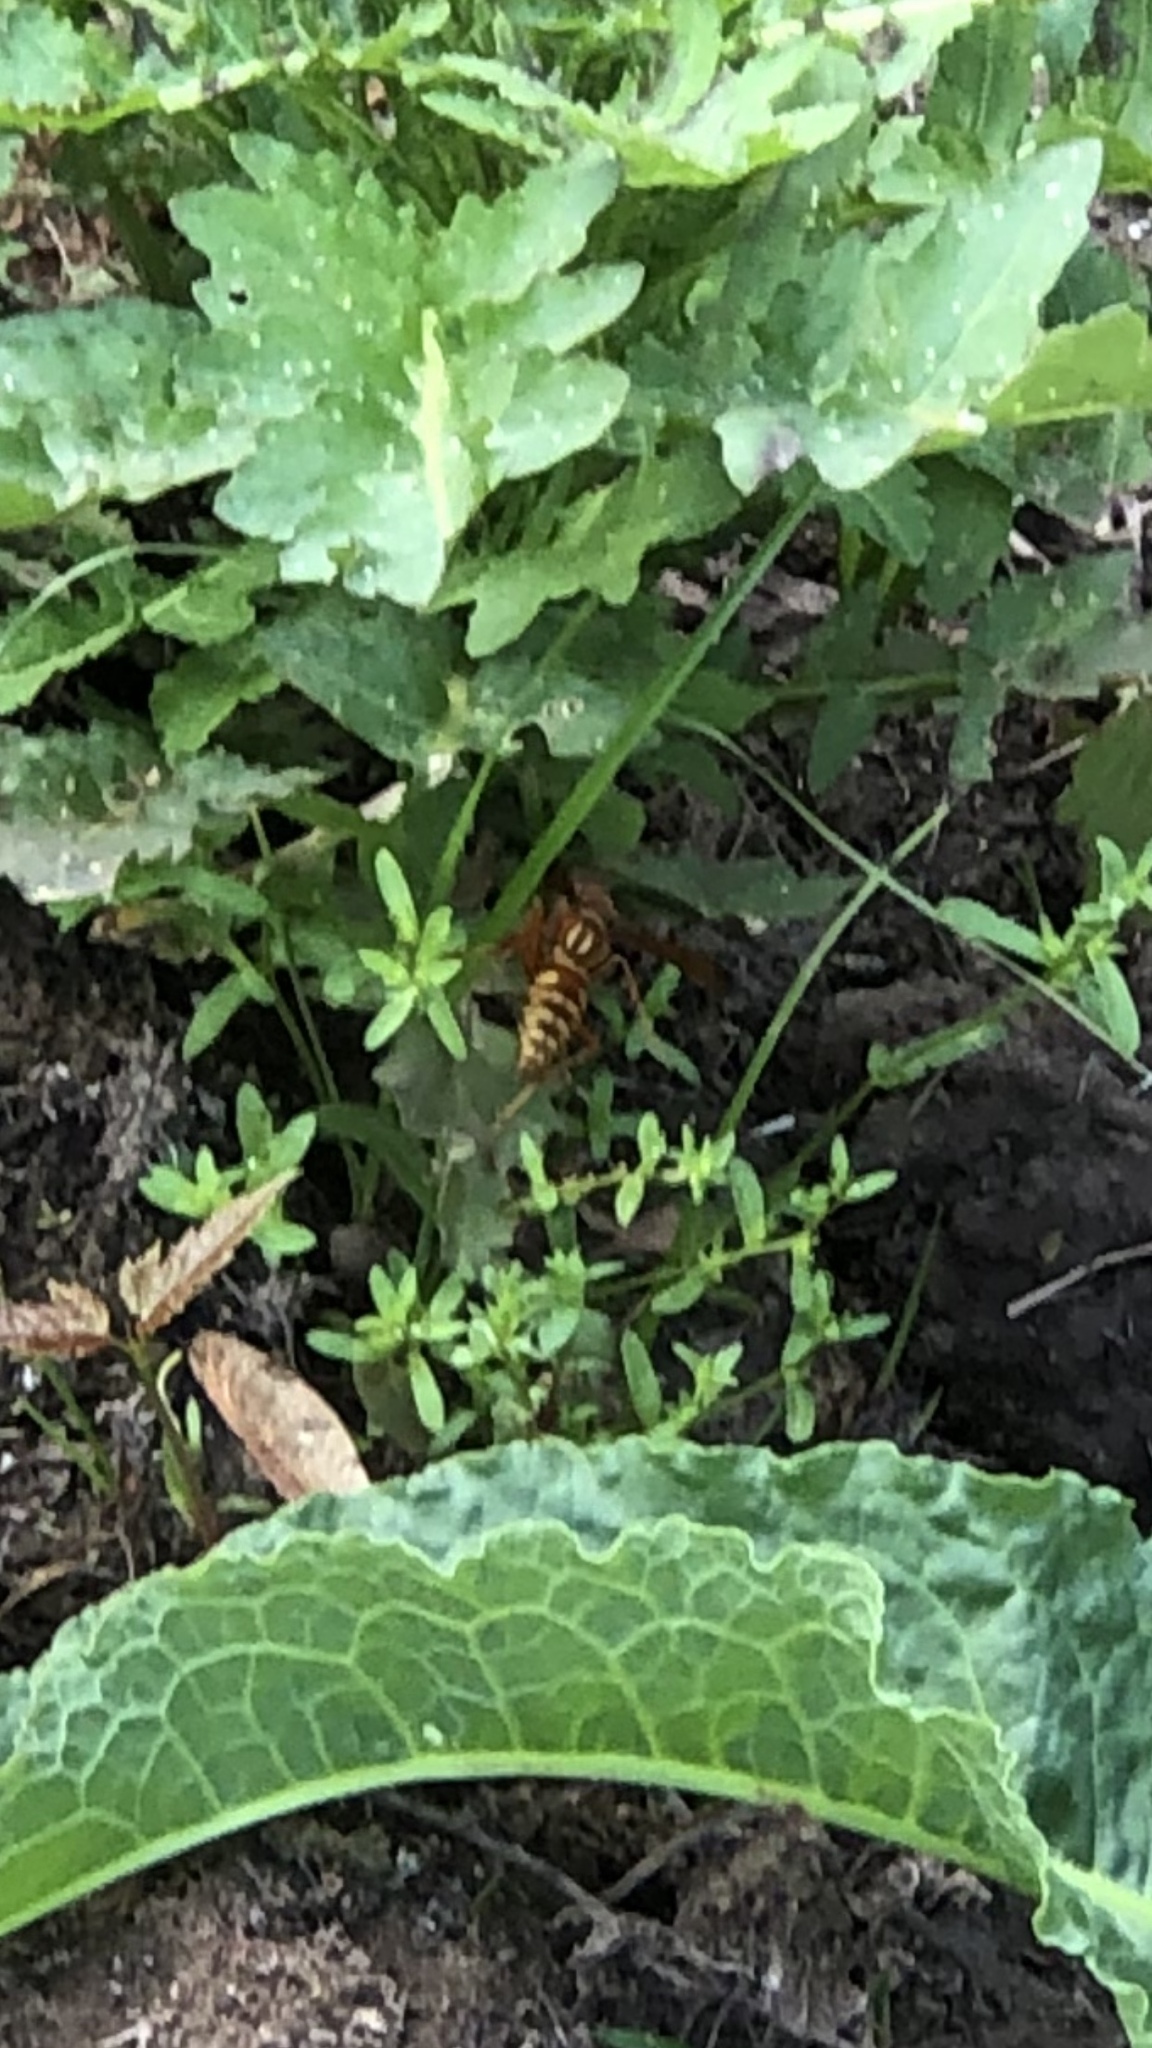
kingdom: Animalia
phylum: Arthropoda
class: Insecta
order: Hymenoptera
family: Eumenidae
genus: Polistes
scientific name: Polistes apachus
